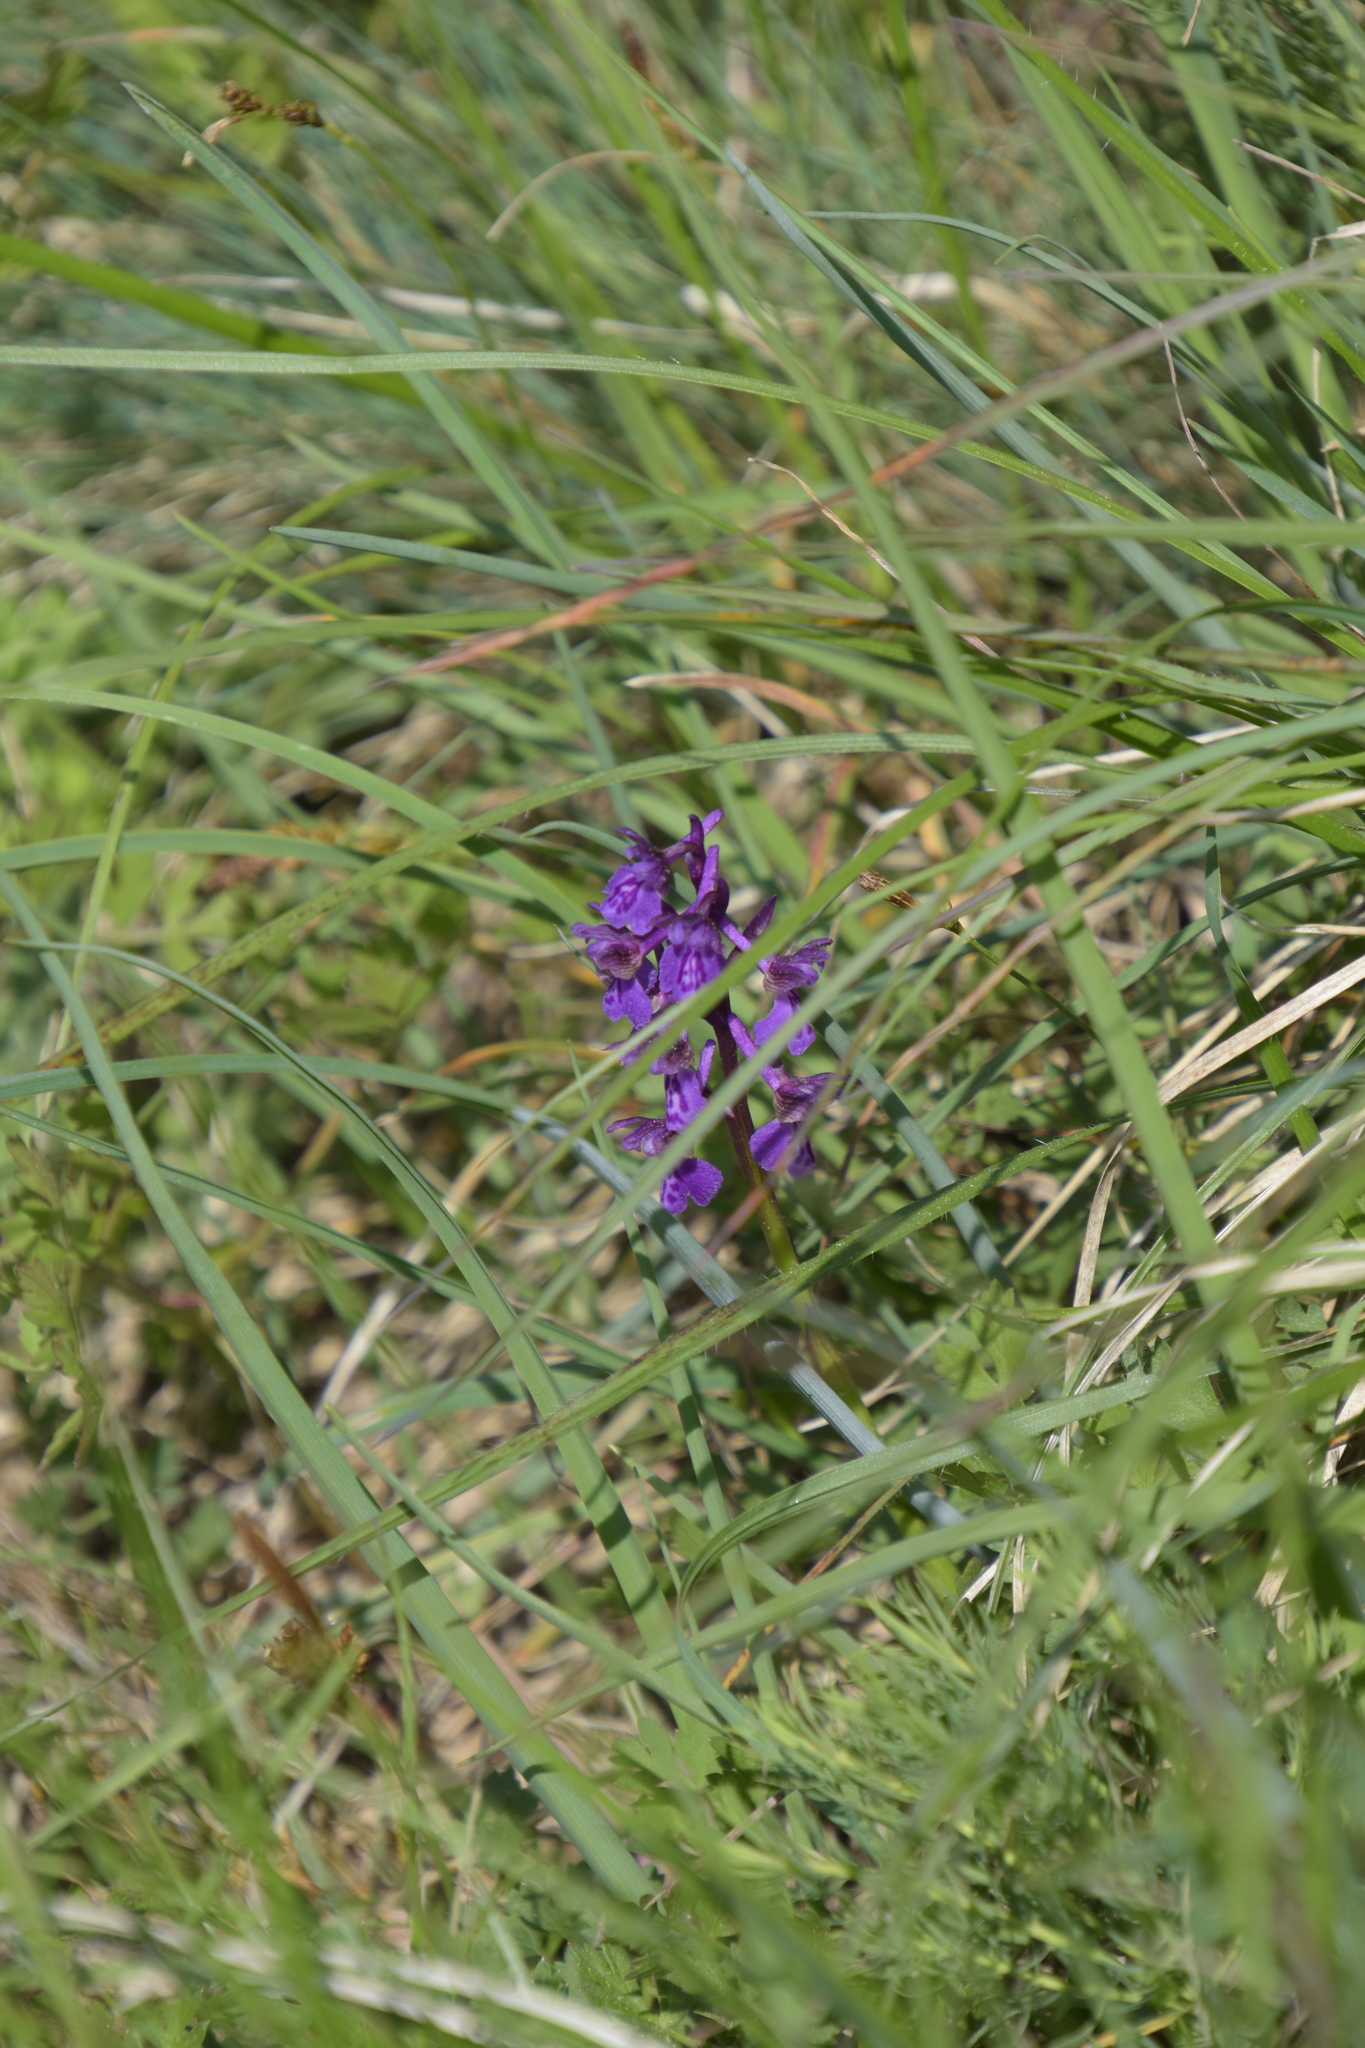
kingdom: Plantae
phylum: Tracheophyta
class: Liliopsida
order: Asparagales
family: Orchidaceae
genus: Anacamptis
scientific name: Anacamptis morio
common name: Green-winged orchid
